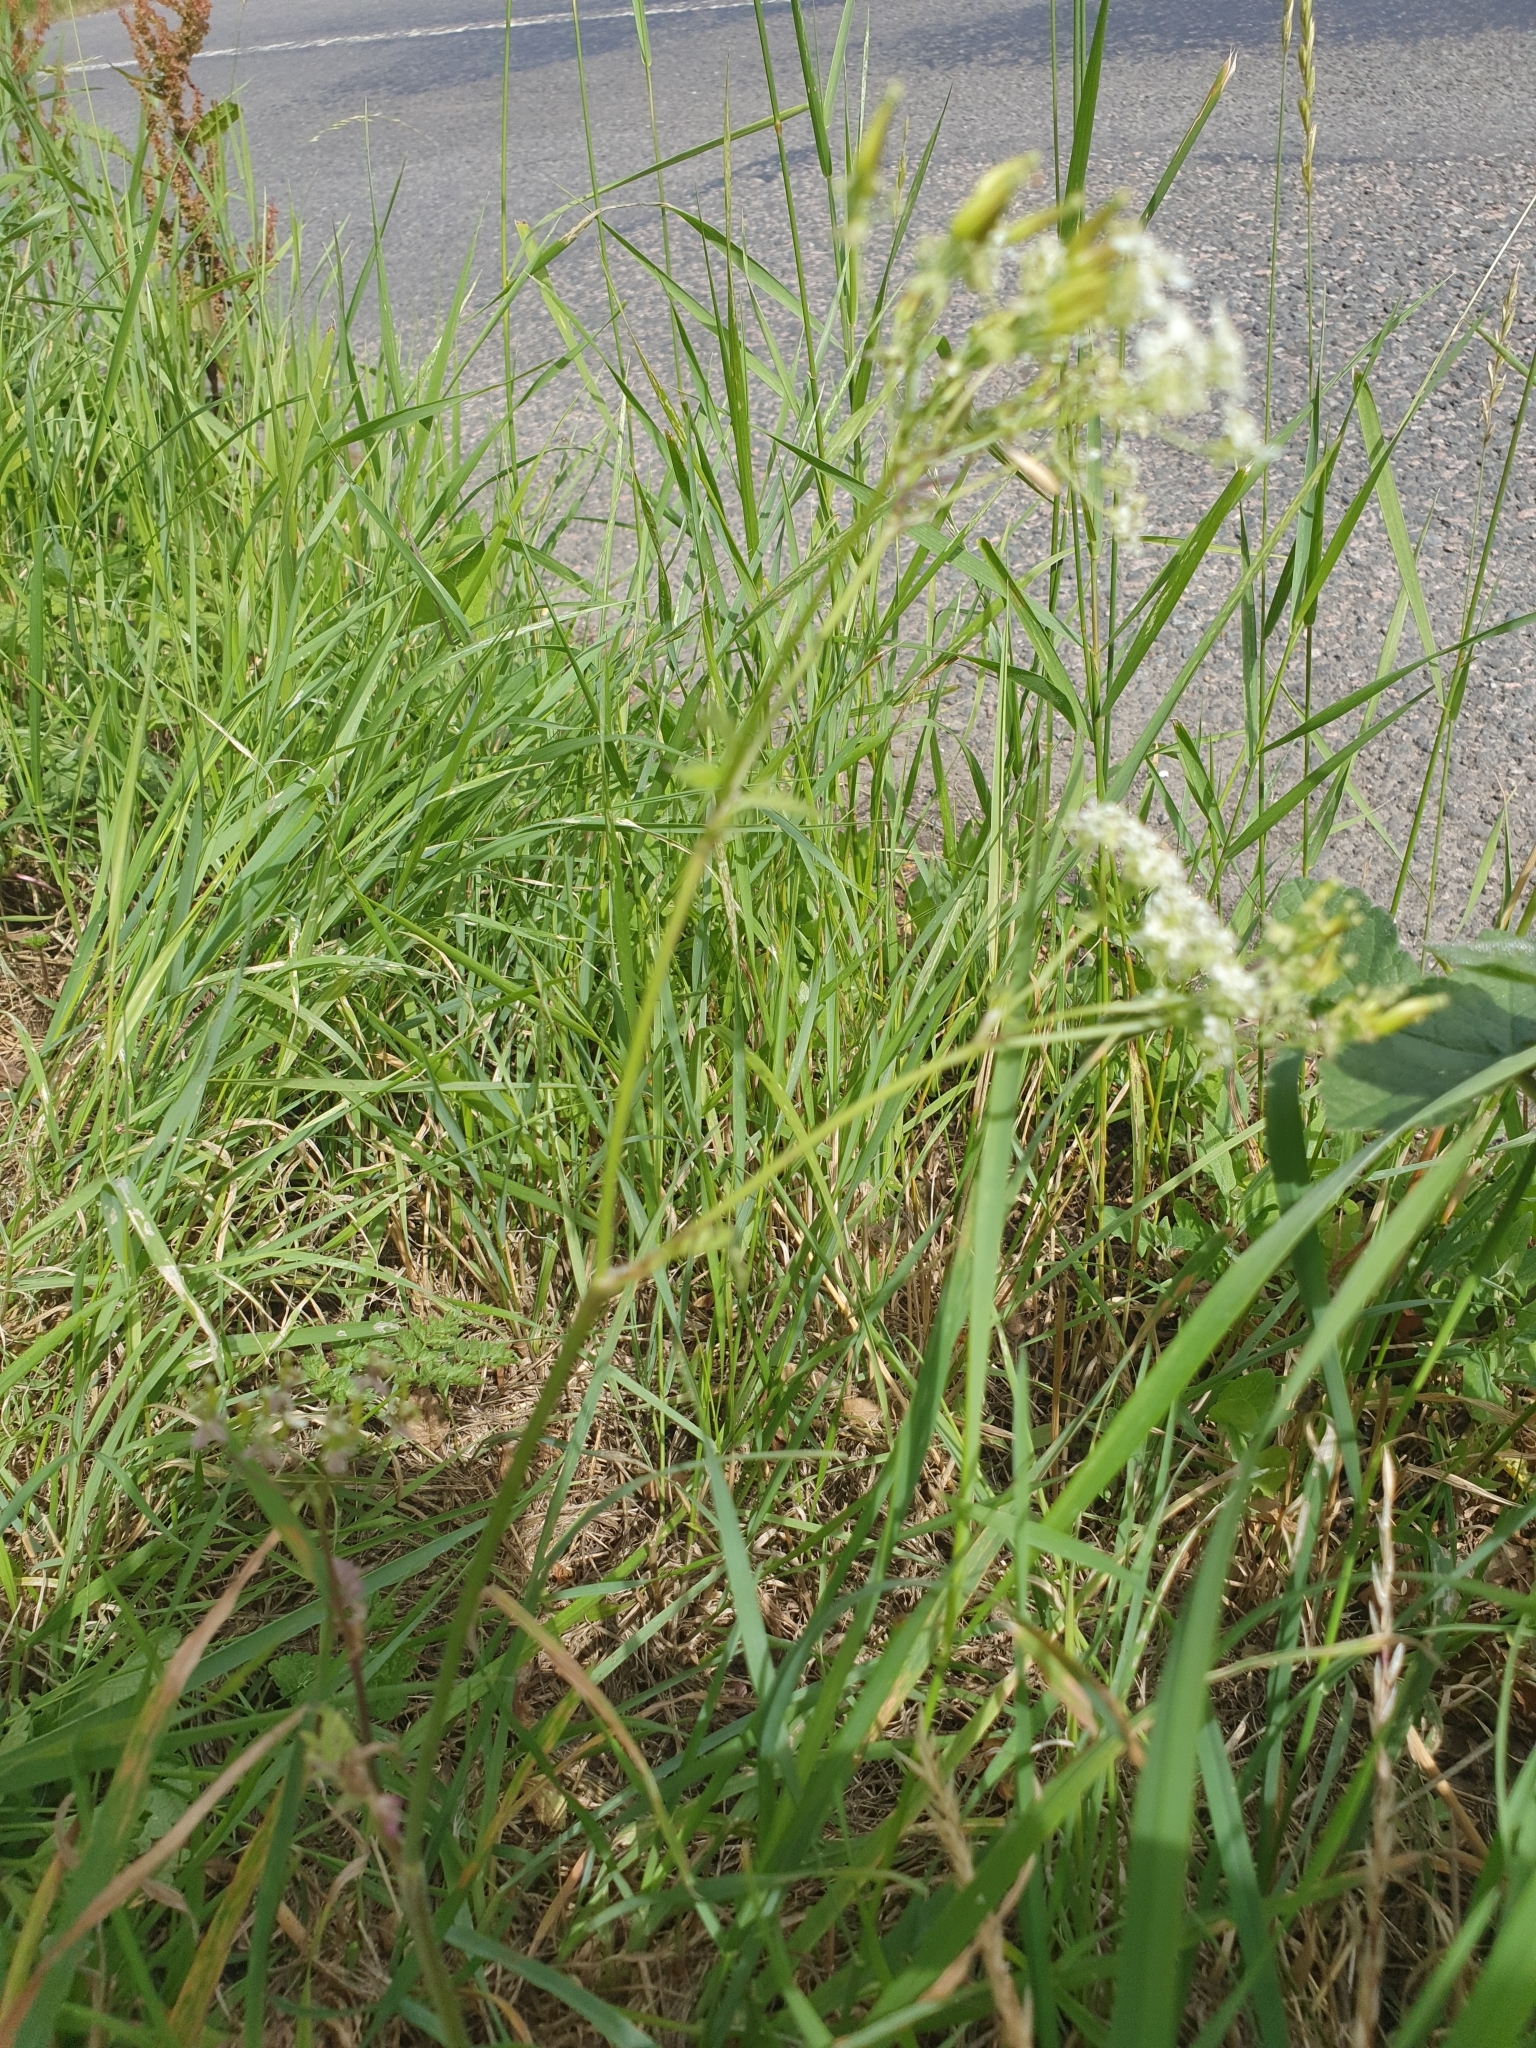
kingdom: Plantae
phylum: Tracheophyta
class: Magnoliopsida
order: Apiales
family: Apiaceae
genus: Anthriscus
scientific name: Anthriscus sylvestris
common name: Cow parsley
